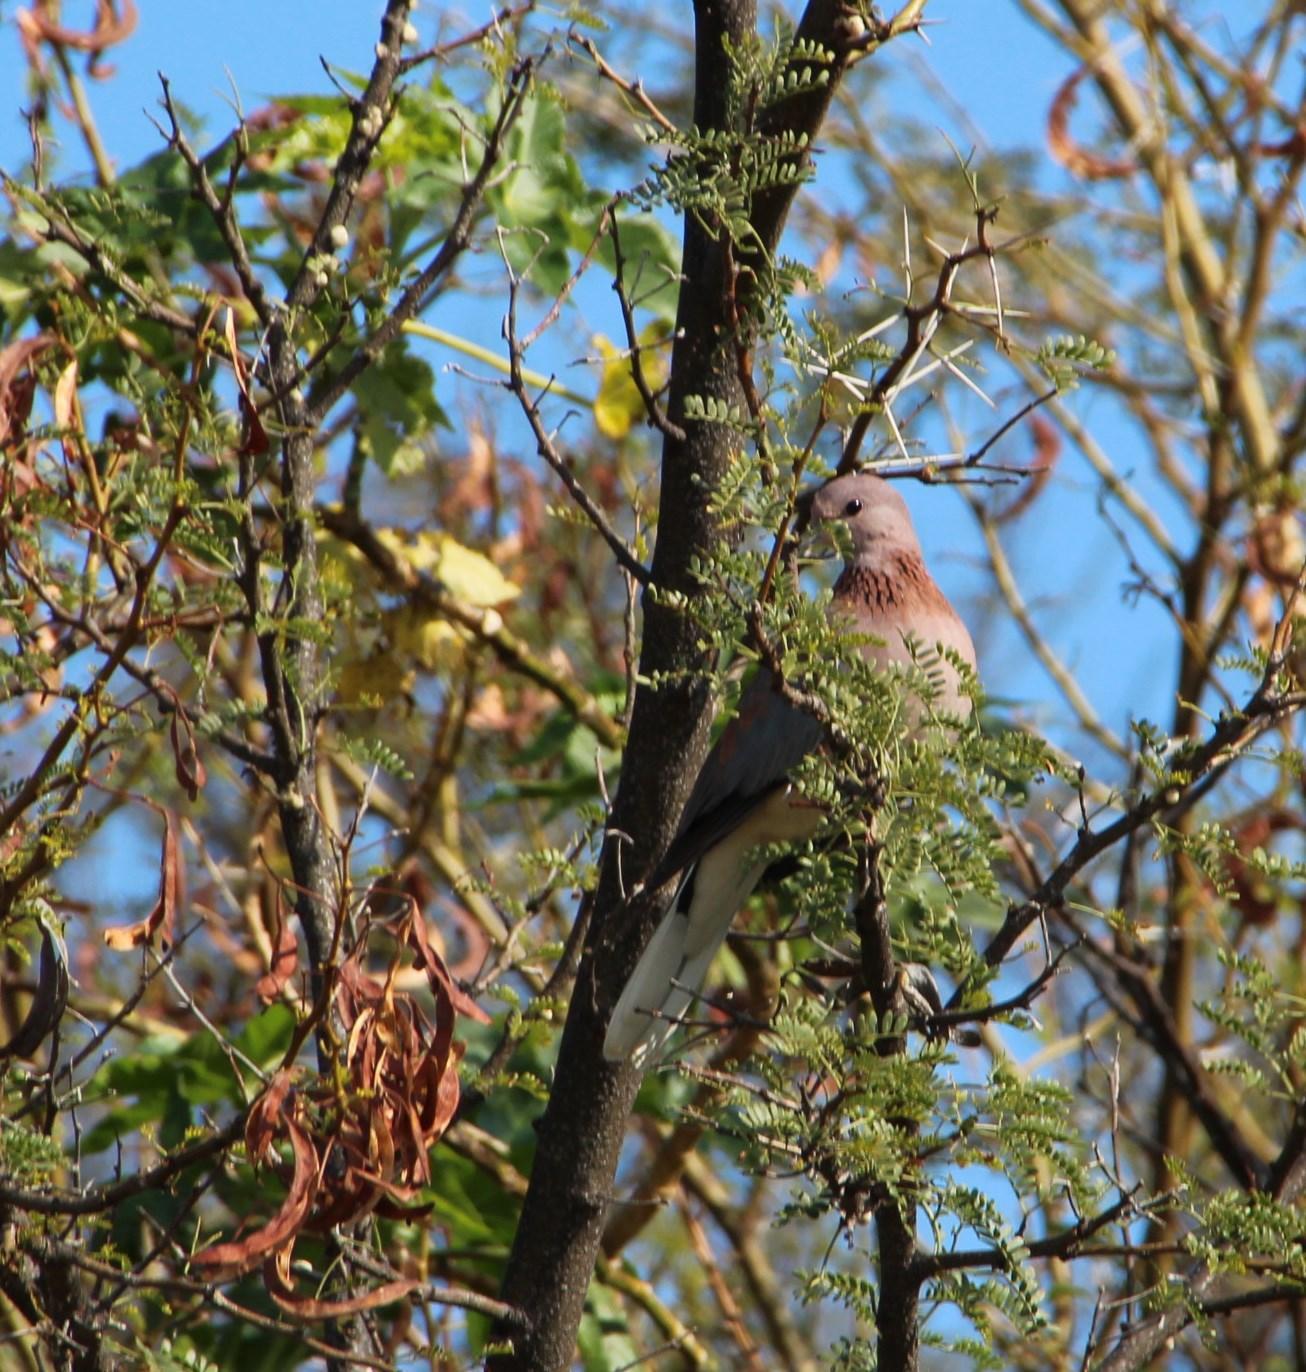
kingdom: Animalia
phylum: Chordata
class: Aves
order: Columbiformes
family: Columbidae
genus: Spilopelia
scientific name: Spilopelia senegalensis
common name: Laughing dove
